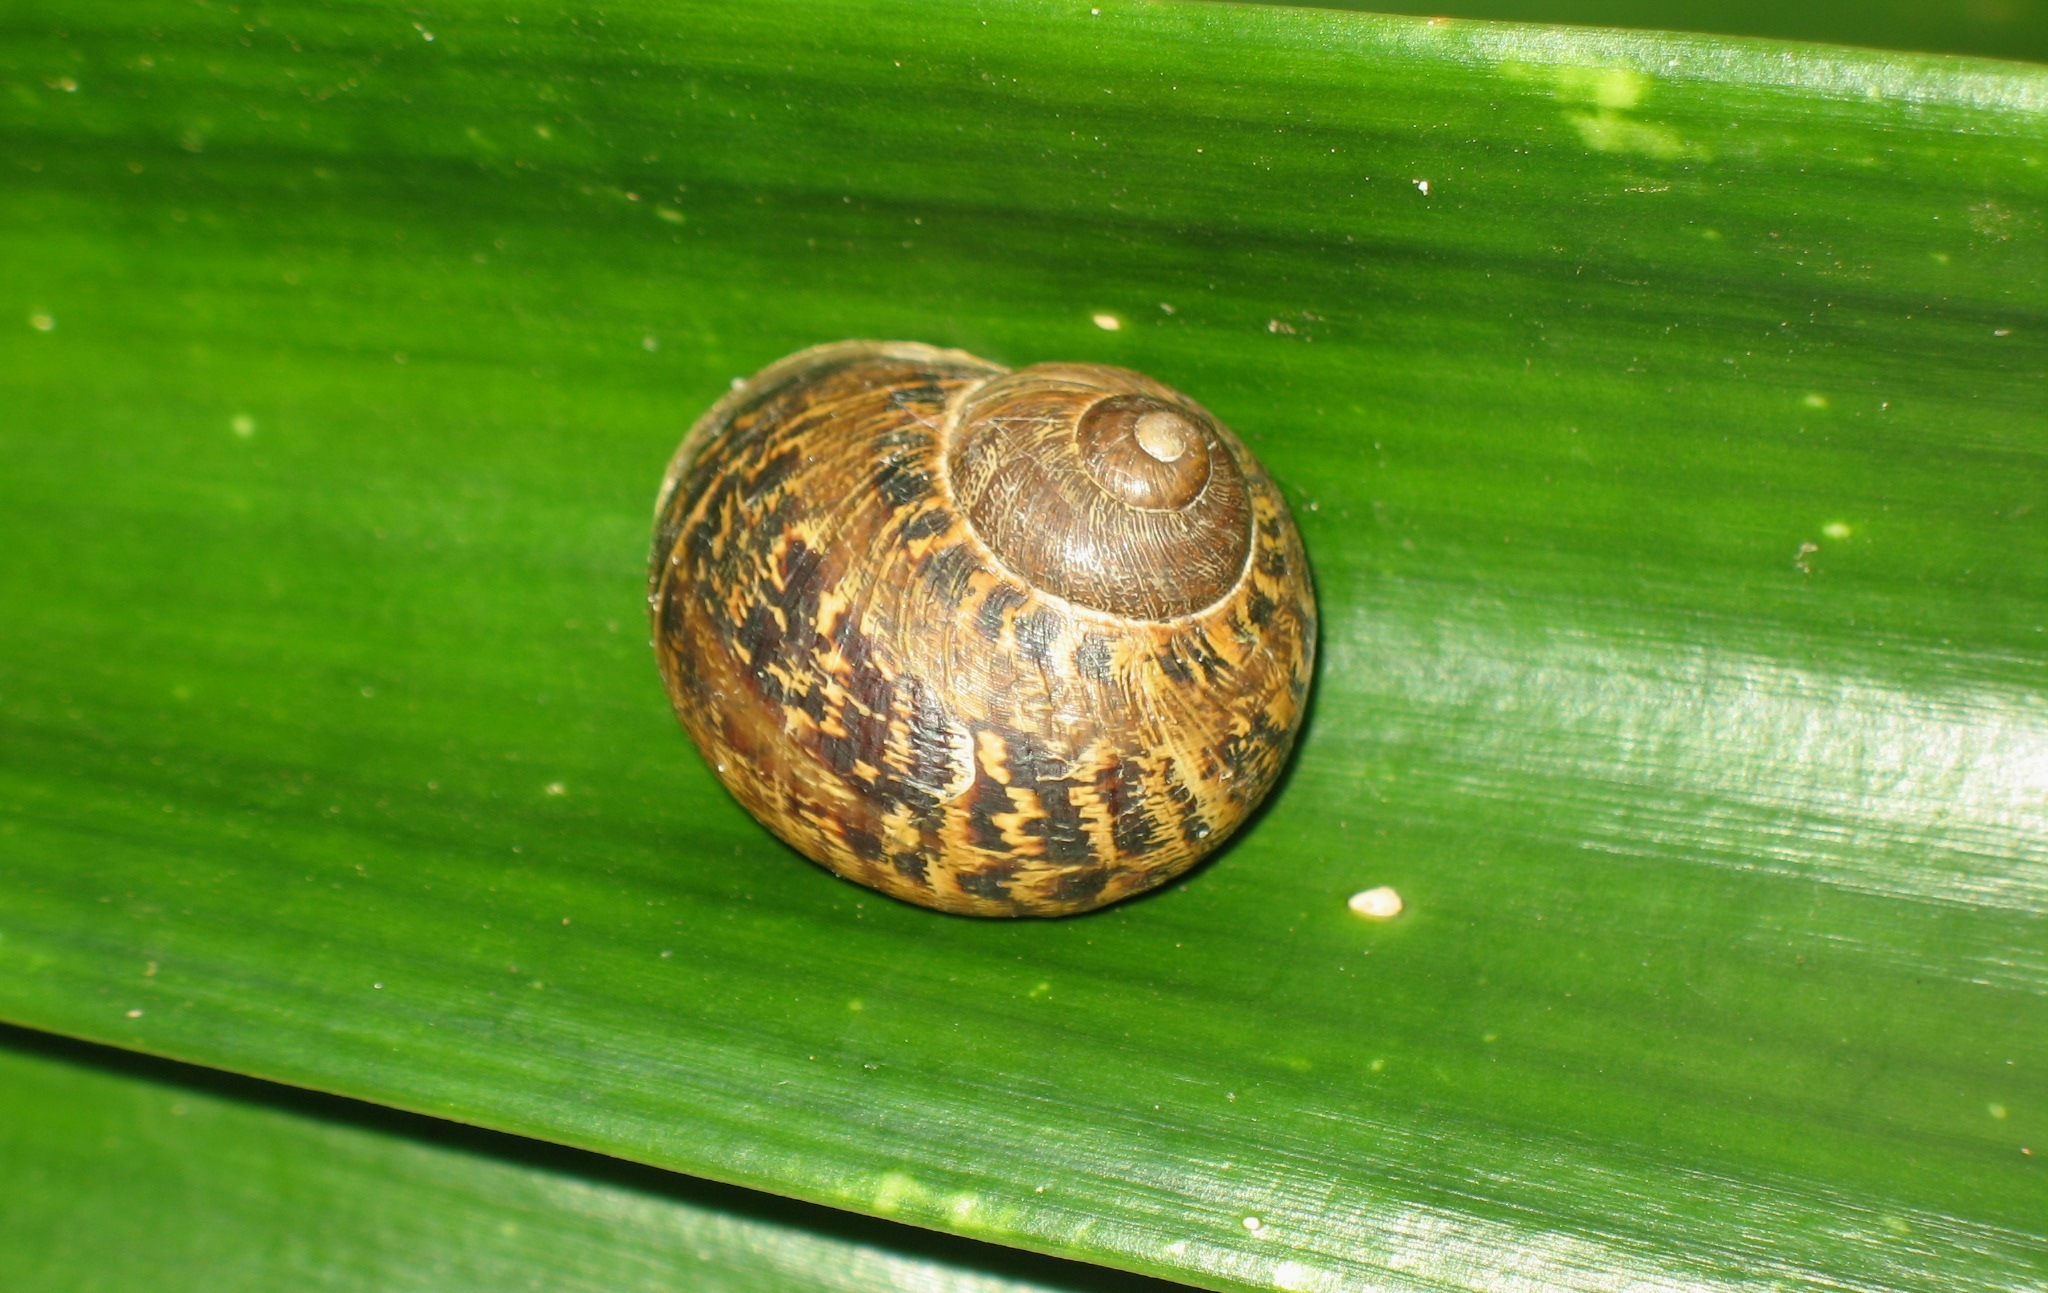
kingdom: Animalia
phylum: Mollusca
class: Gastropoda
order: Stylommatophora
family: Helicidae
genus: Cornu
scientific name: Cornu aspersum
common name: Brown garden snail
